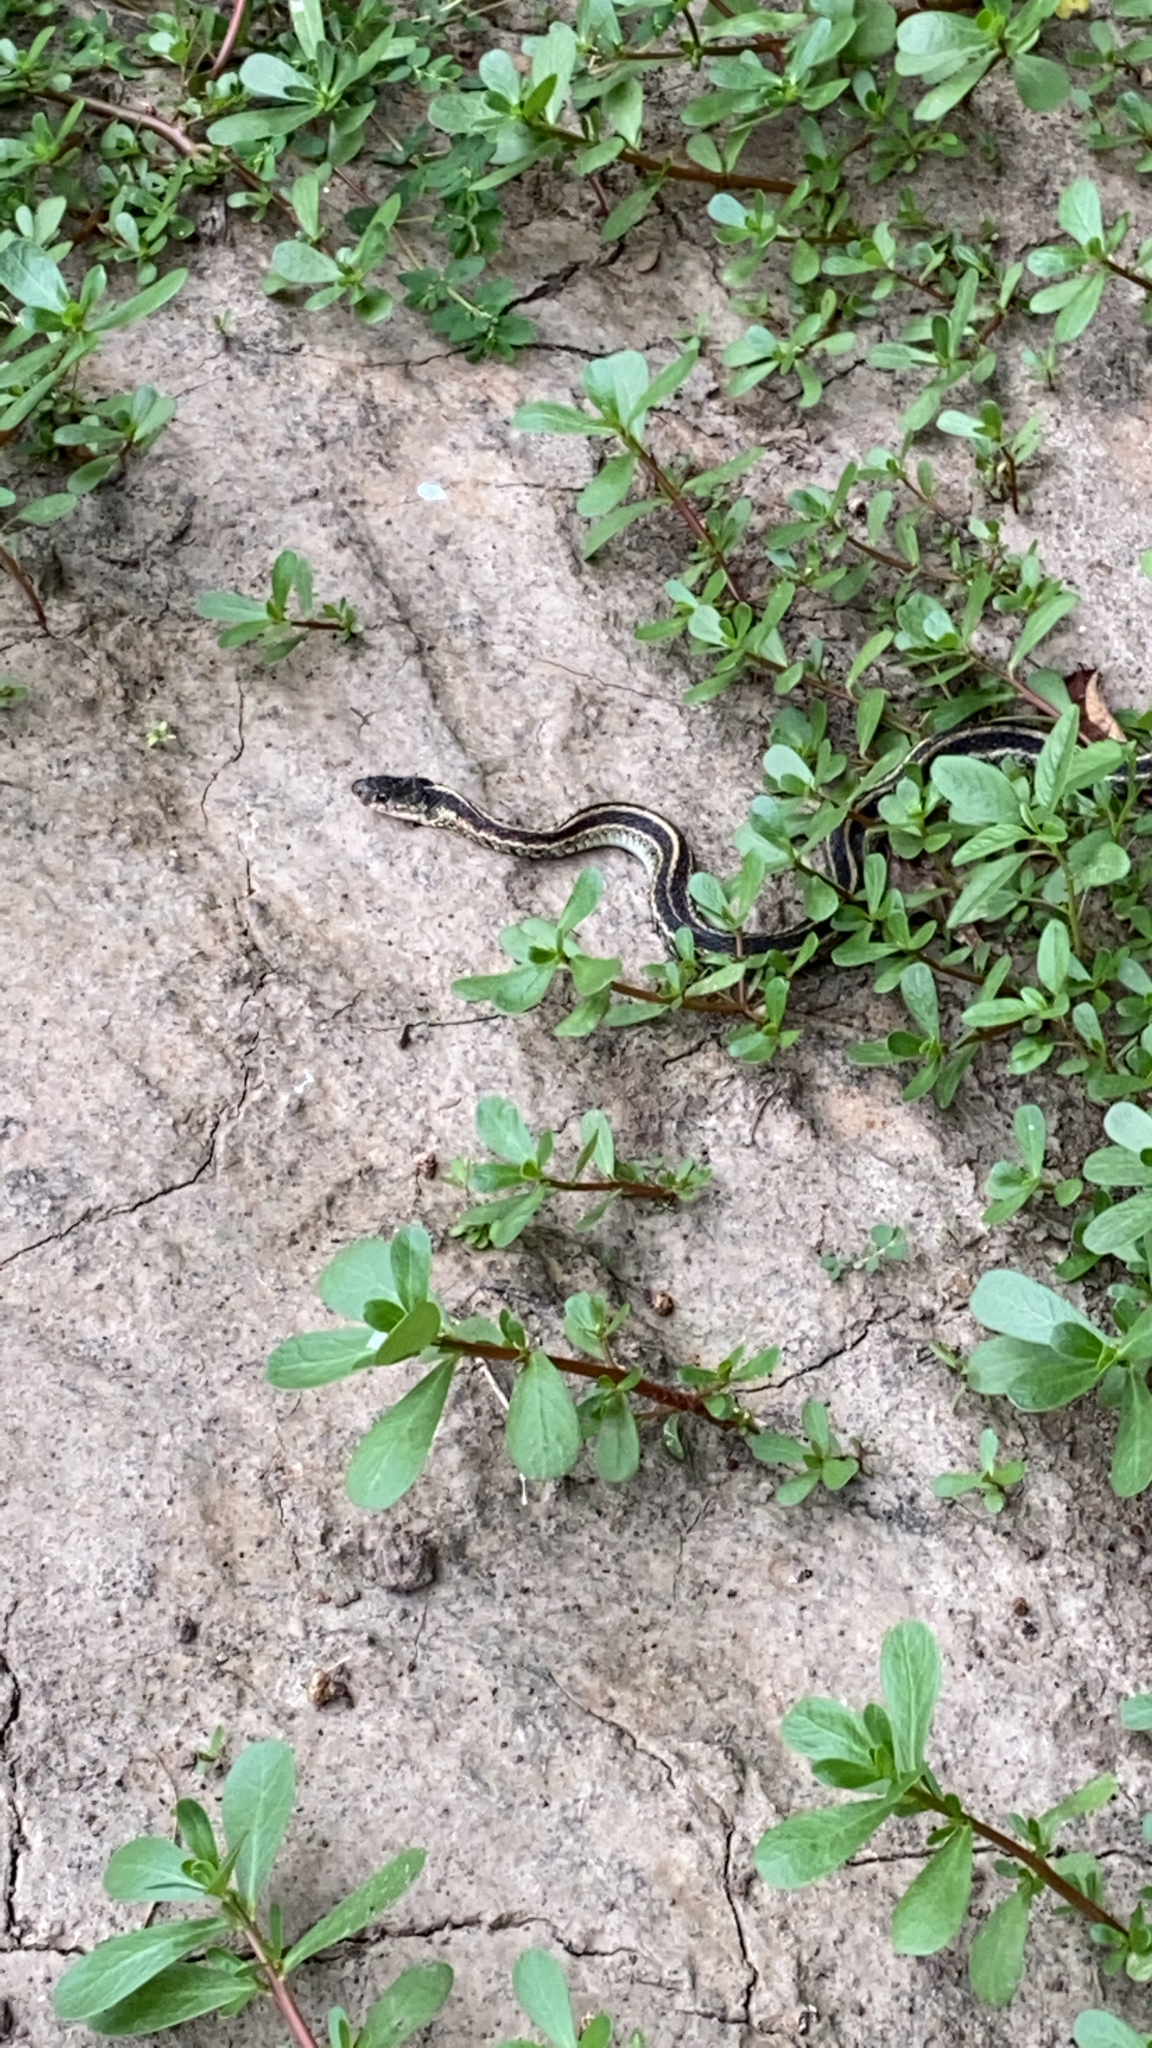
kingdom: Animalia
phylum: Chordata
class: Squamata
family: Colubridae
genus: Thamnophis
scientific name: Thamnophis sirtalis
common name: Common garter snake
